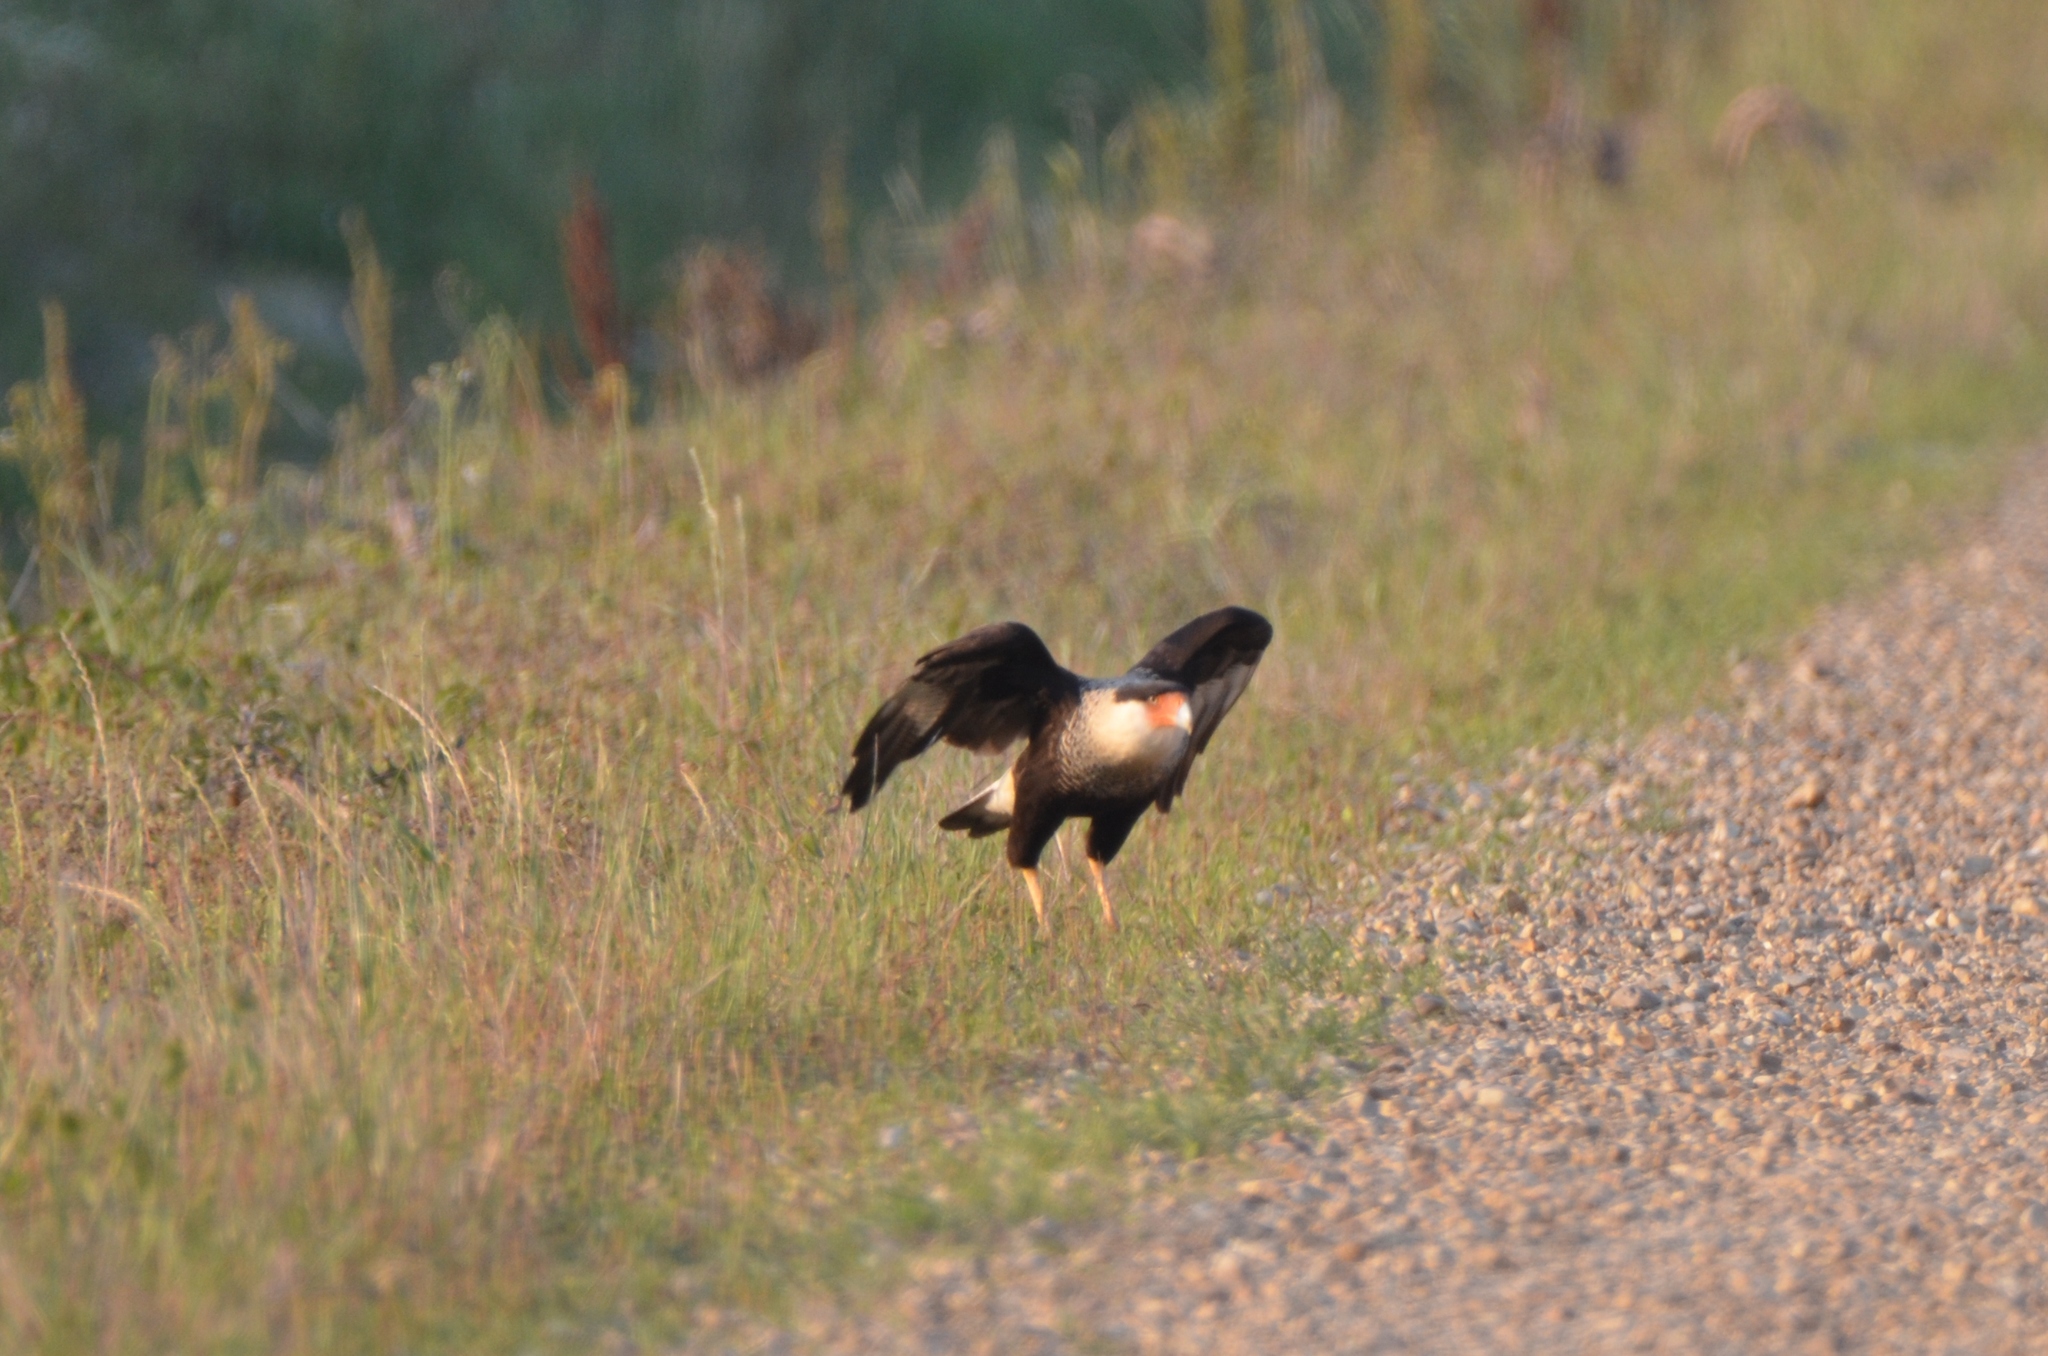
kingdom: Animalia
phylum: Chordata
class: Aves
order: Falconiformes
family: Falconidae
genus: Caracara
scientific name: Caracara plancus
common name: Southern caracara
